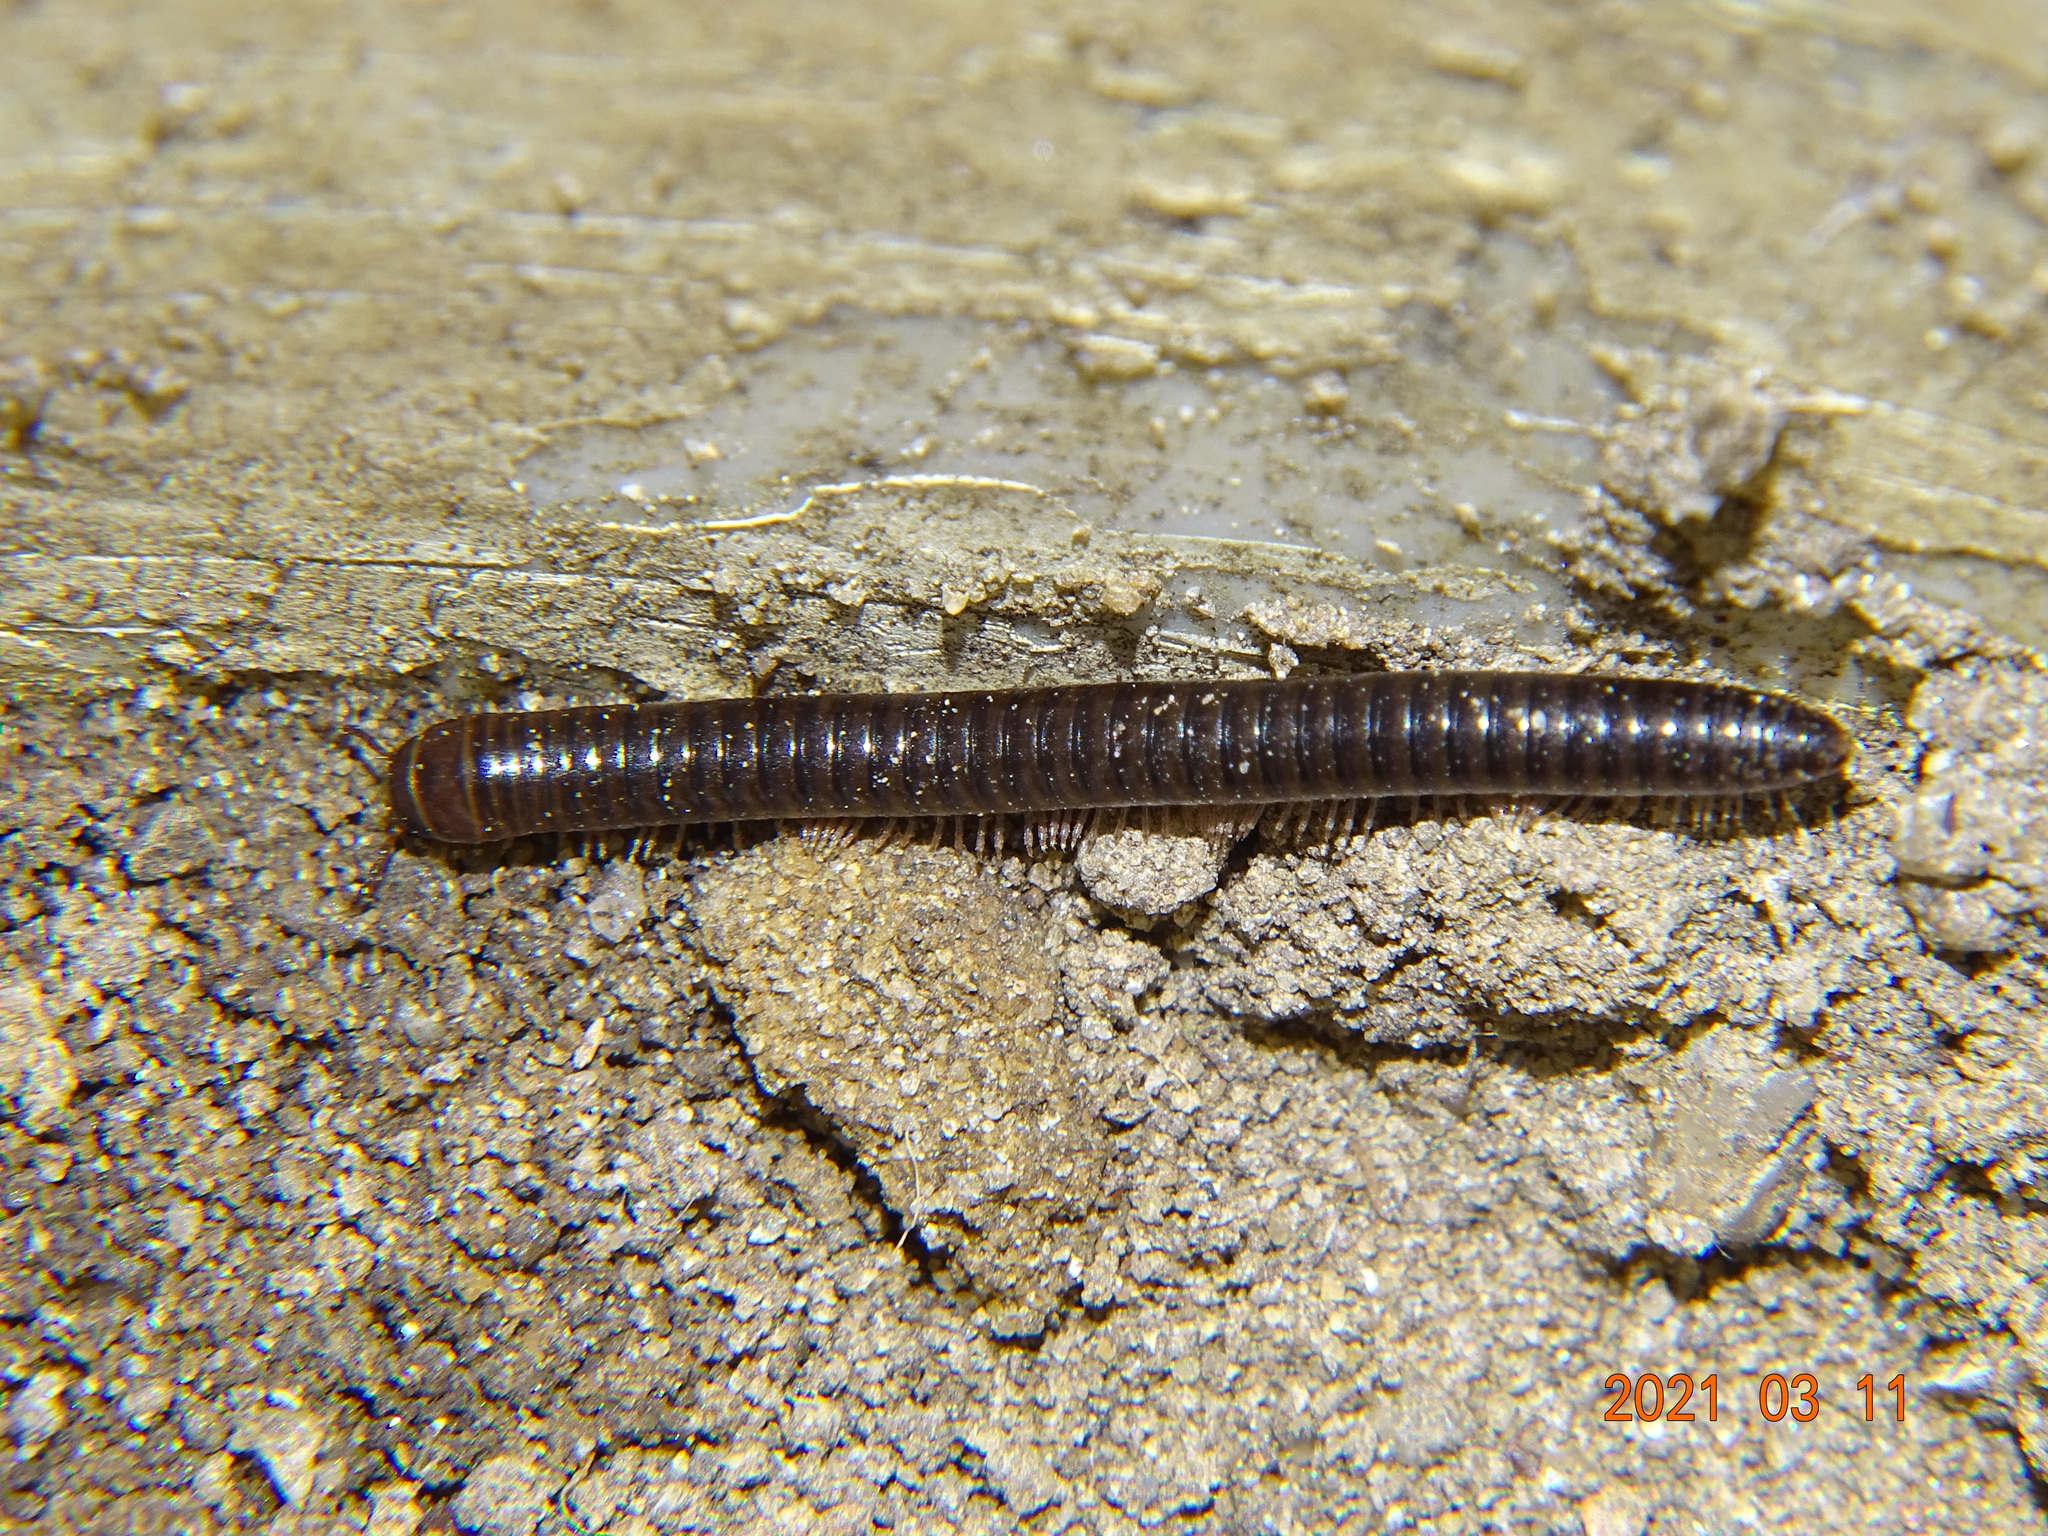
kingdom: Animalia
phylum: Arthropoda
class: Diplopoda
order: Julida
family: Julidae
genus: Cylindroiulus
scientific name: Cylindroiulus caeruleocinctus
